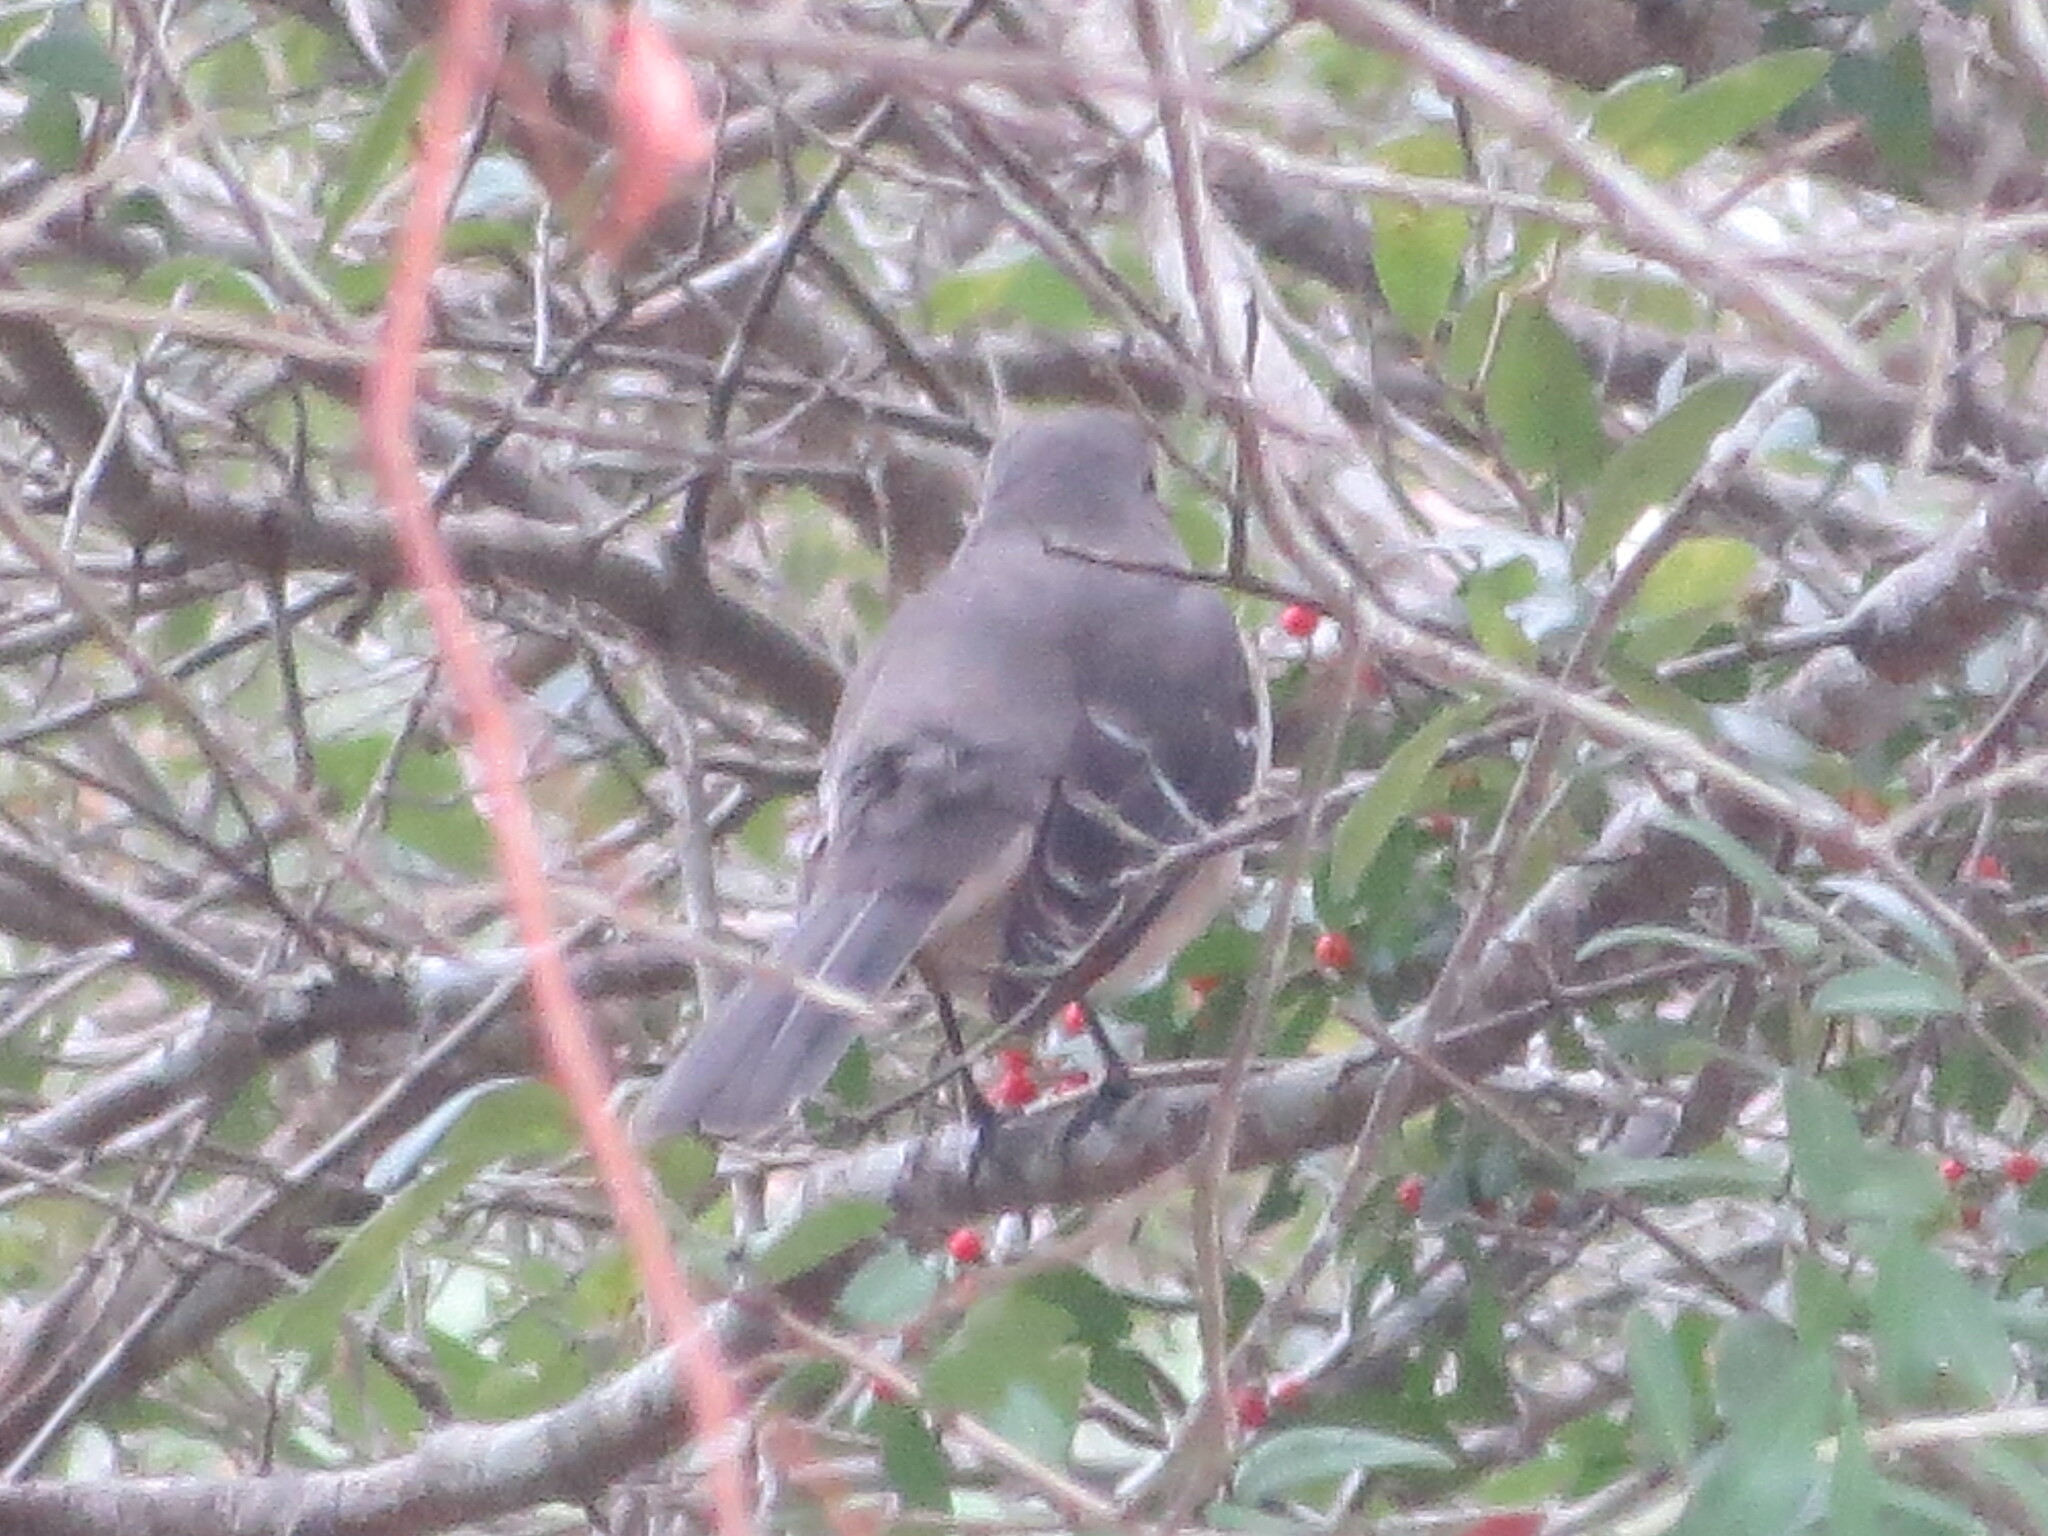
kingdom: Animalia
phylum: Chordata
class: Aves
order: Passeriformes
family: Mimidae
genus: Mimus
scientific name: Mimus polyglottos
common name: Northern mockingbird
